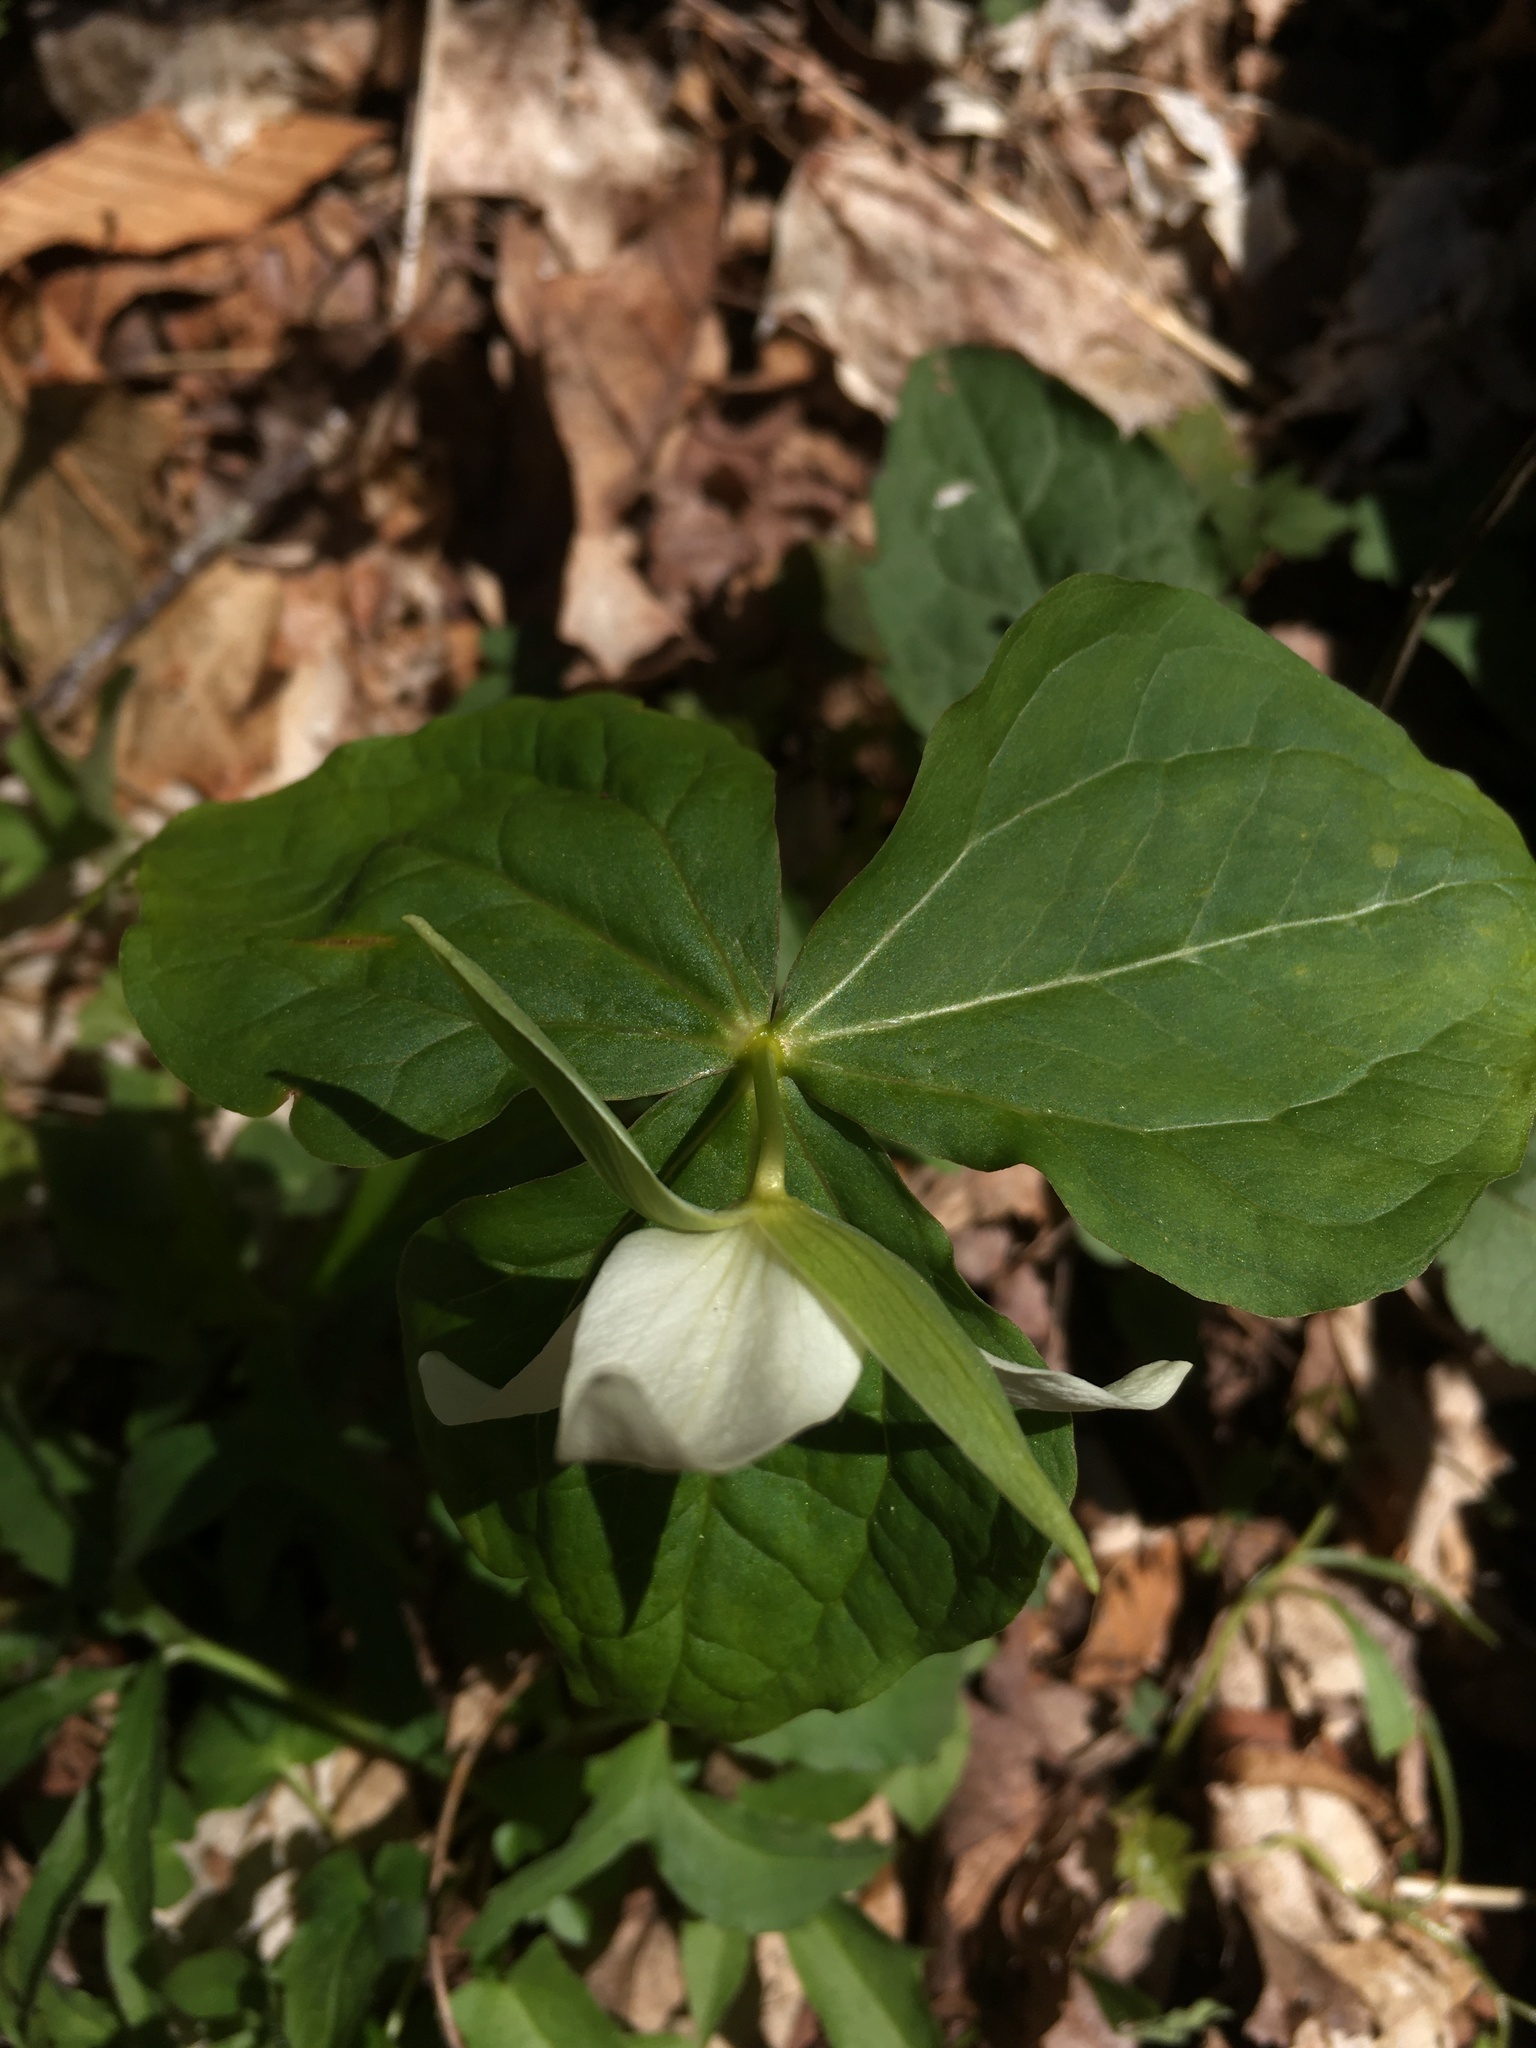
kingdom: Plantae
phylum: Tracheophyta
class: Liliopsida
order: Liliales
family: Melanthiaceae
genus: Trillium
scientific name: Trillium erectum
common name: Purple trillium
